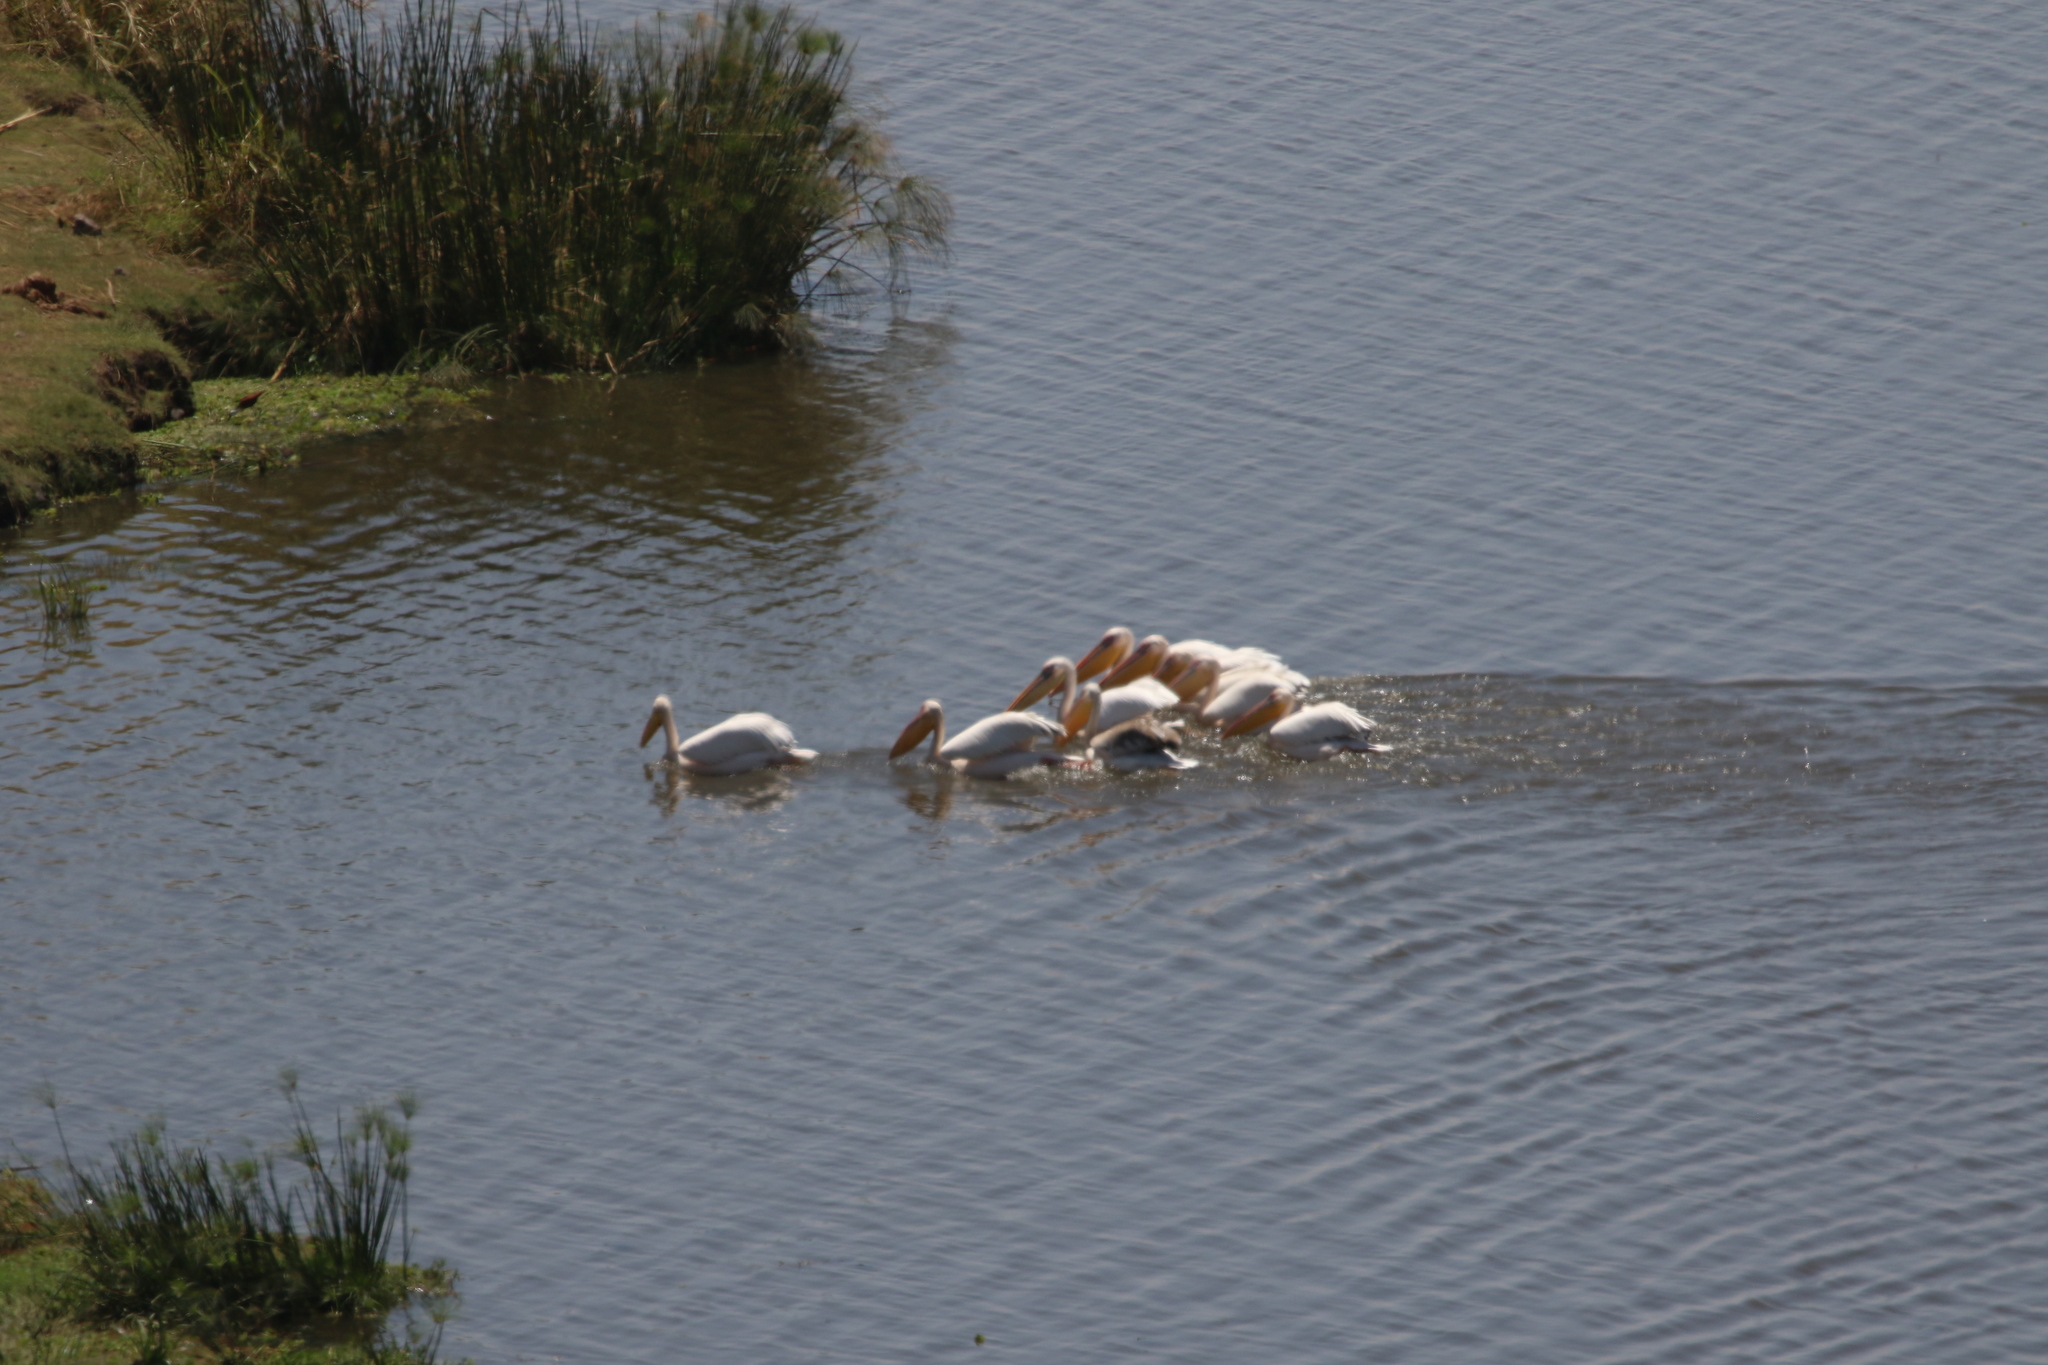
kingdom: Animalia
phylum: Chordata
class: Aves
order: Pelecaniformes
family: Pelecanidae
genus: Pelecanus
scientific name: Pelecanus onocrotalus
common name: Great white pelican
